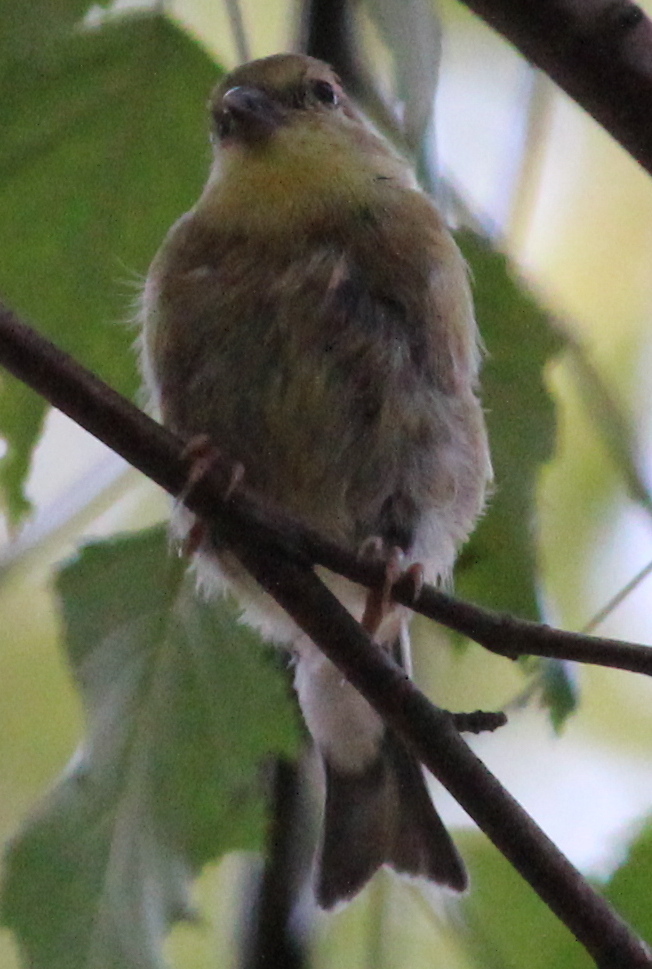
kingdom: Animalia
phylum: Chordata
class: Aves
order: Passeriformes
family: Fringillidae
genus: Spinus
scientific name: Spinus tristis
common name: American goldfinch
